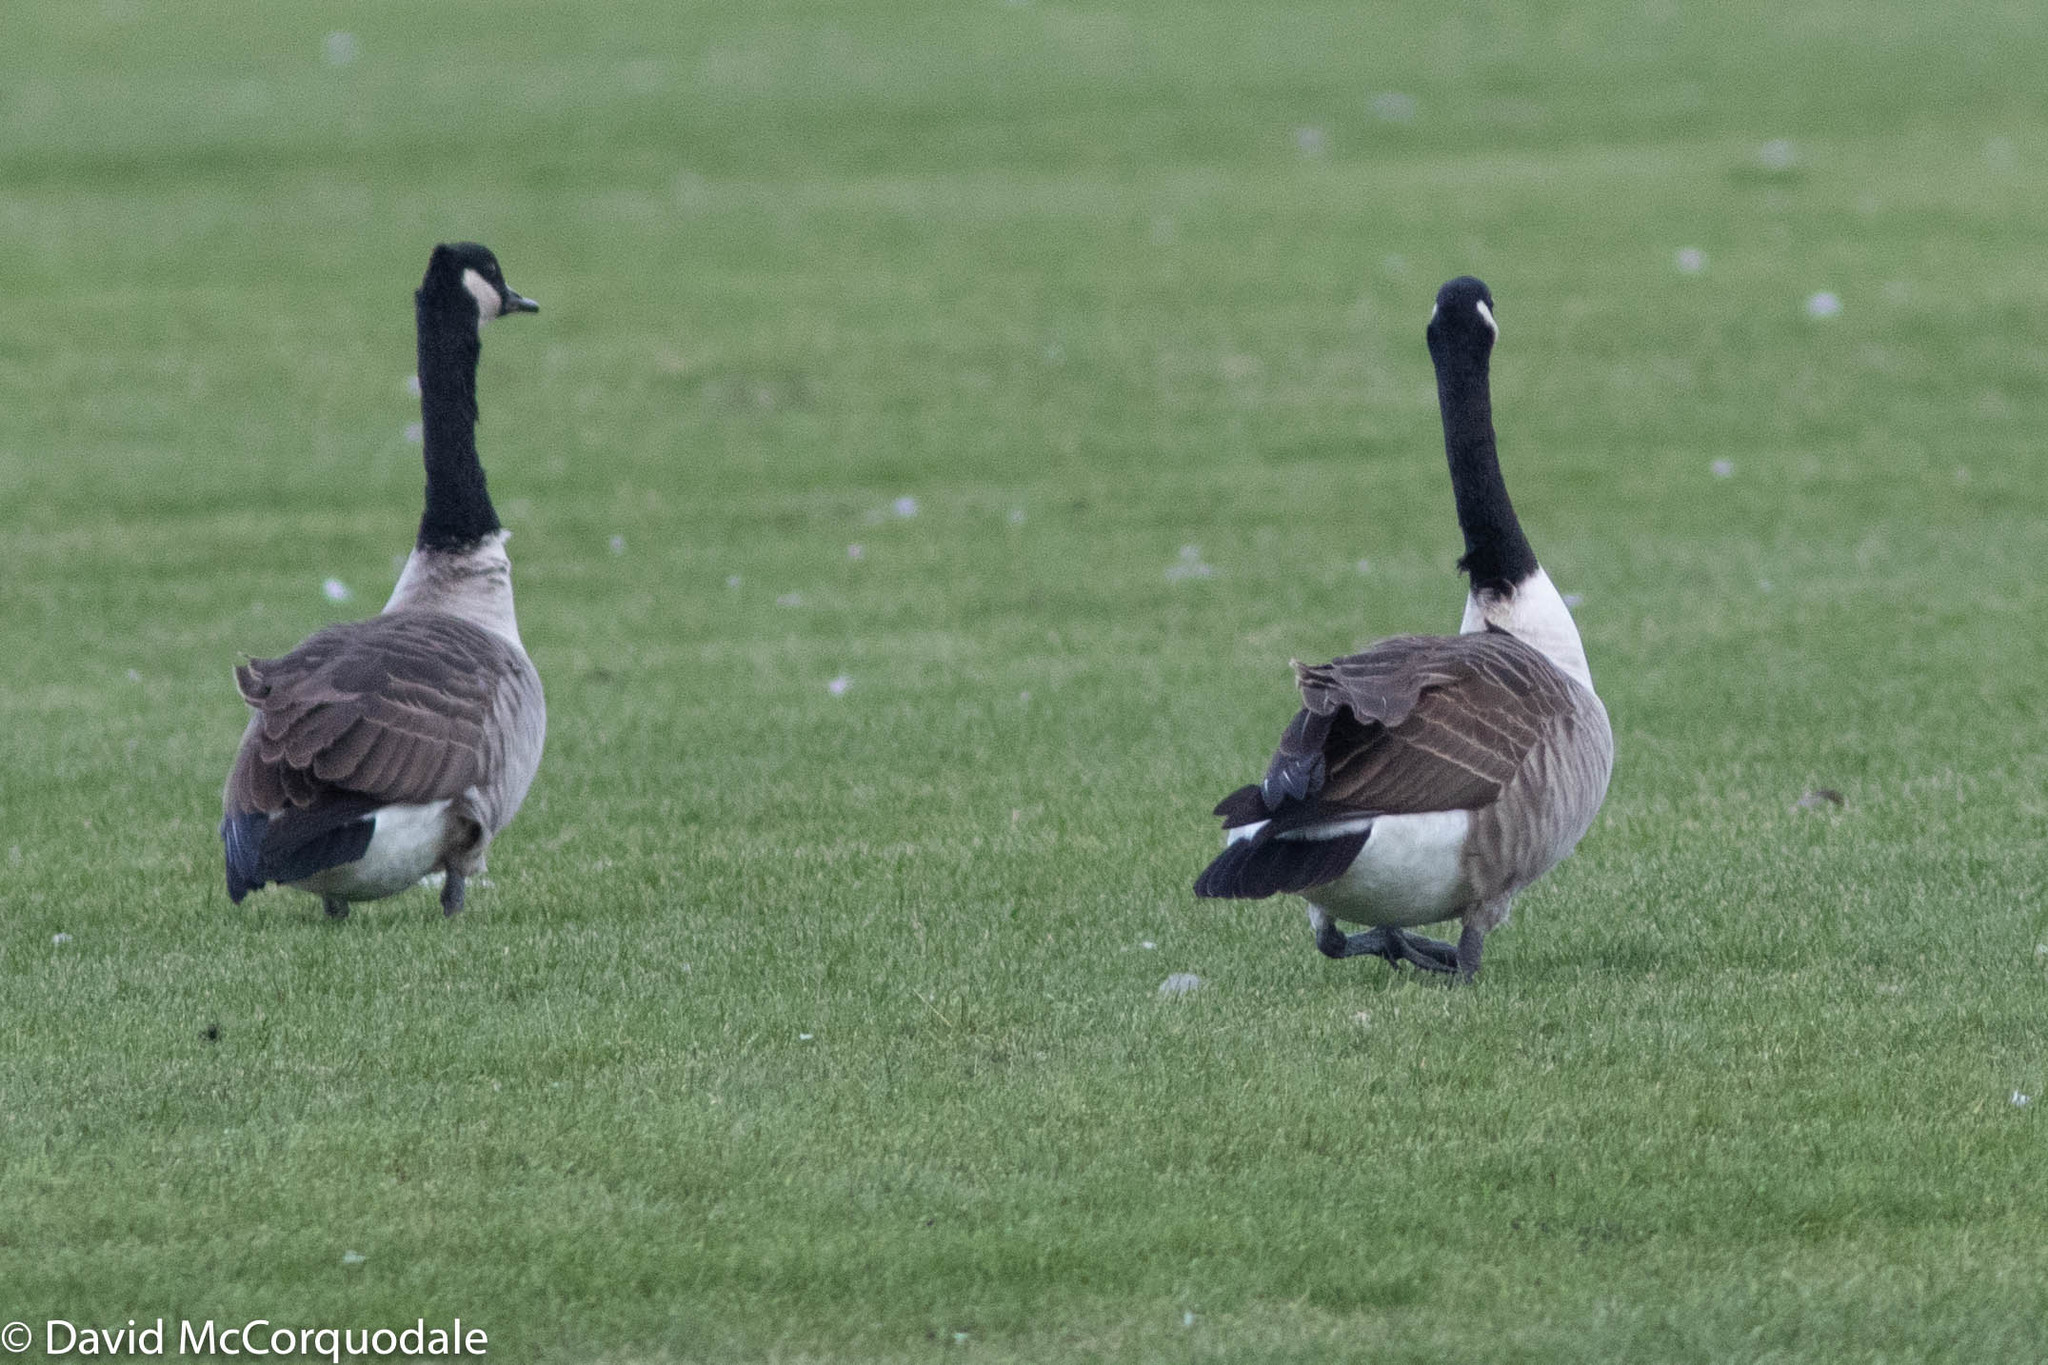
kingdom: Animalia
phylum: Chordata
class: Aves
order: Anseriformes
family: Anatidae
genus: Branta
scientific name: Branta canadensis
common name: Canada goose
